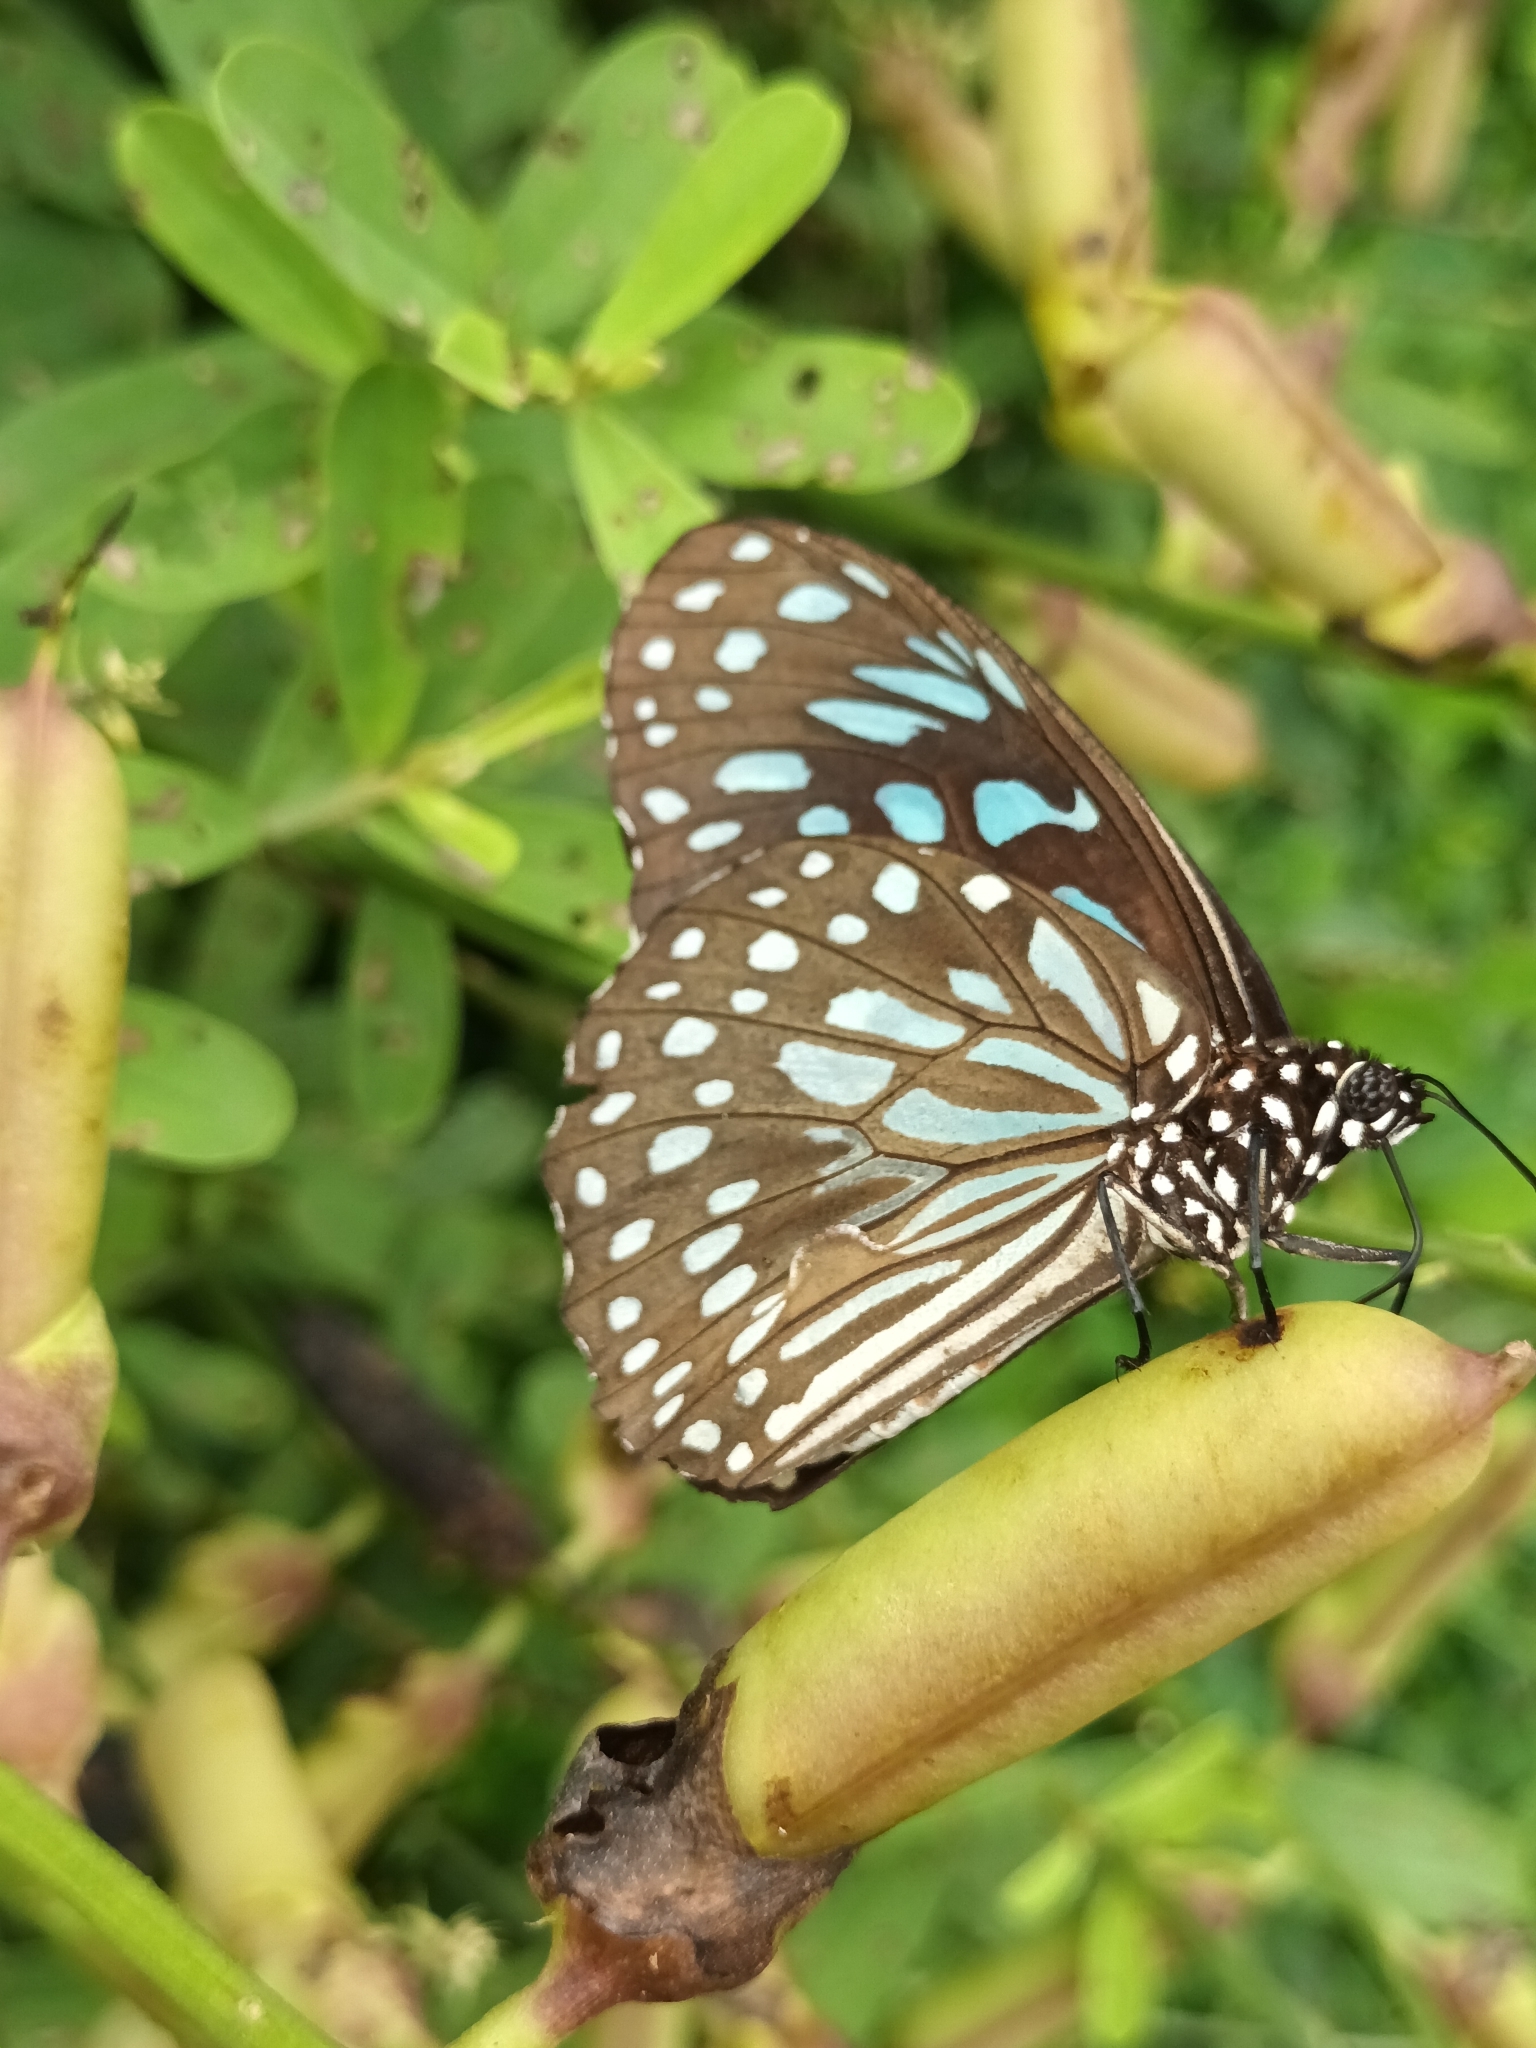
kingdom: Animalia
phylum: Arthropoda
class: Insecta
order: Lepidoptera
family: Nymphalidae
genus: Tirumala
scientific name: Tirumala septentrionis
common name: Dark blue tiger butterfly
